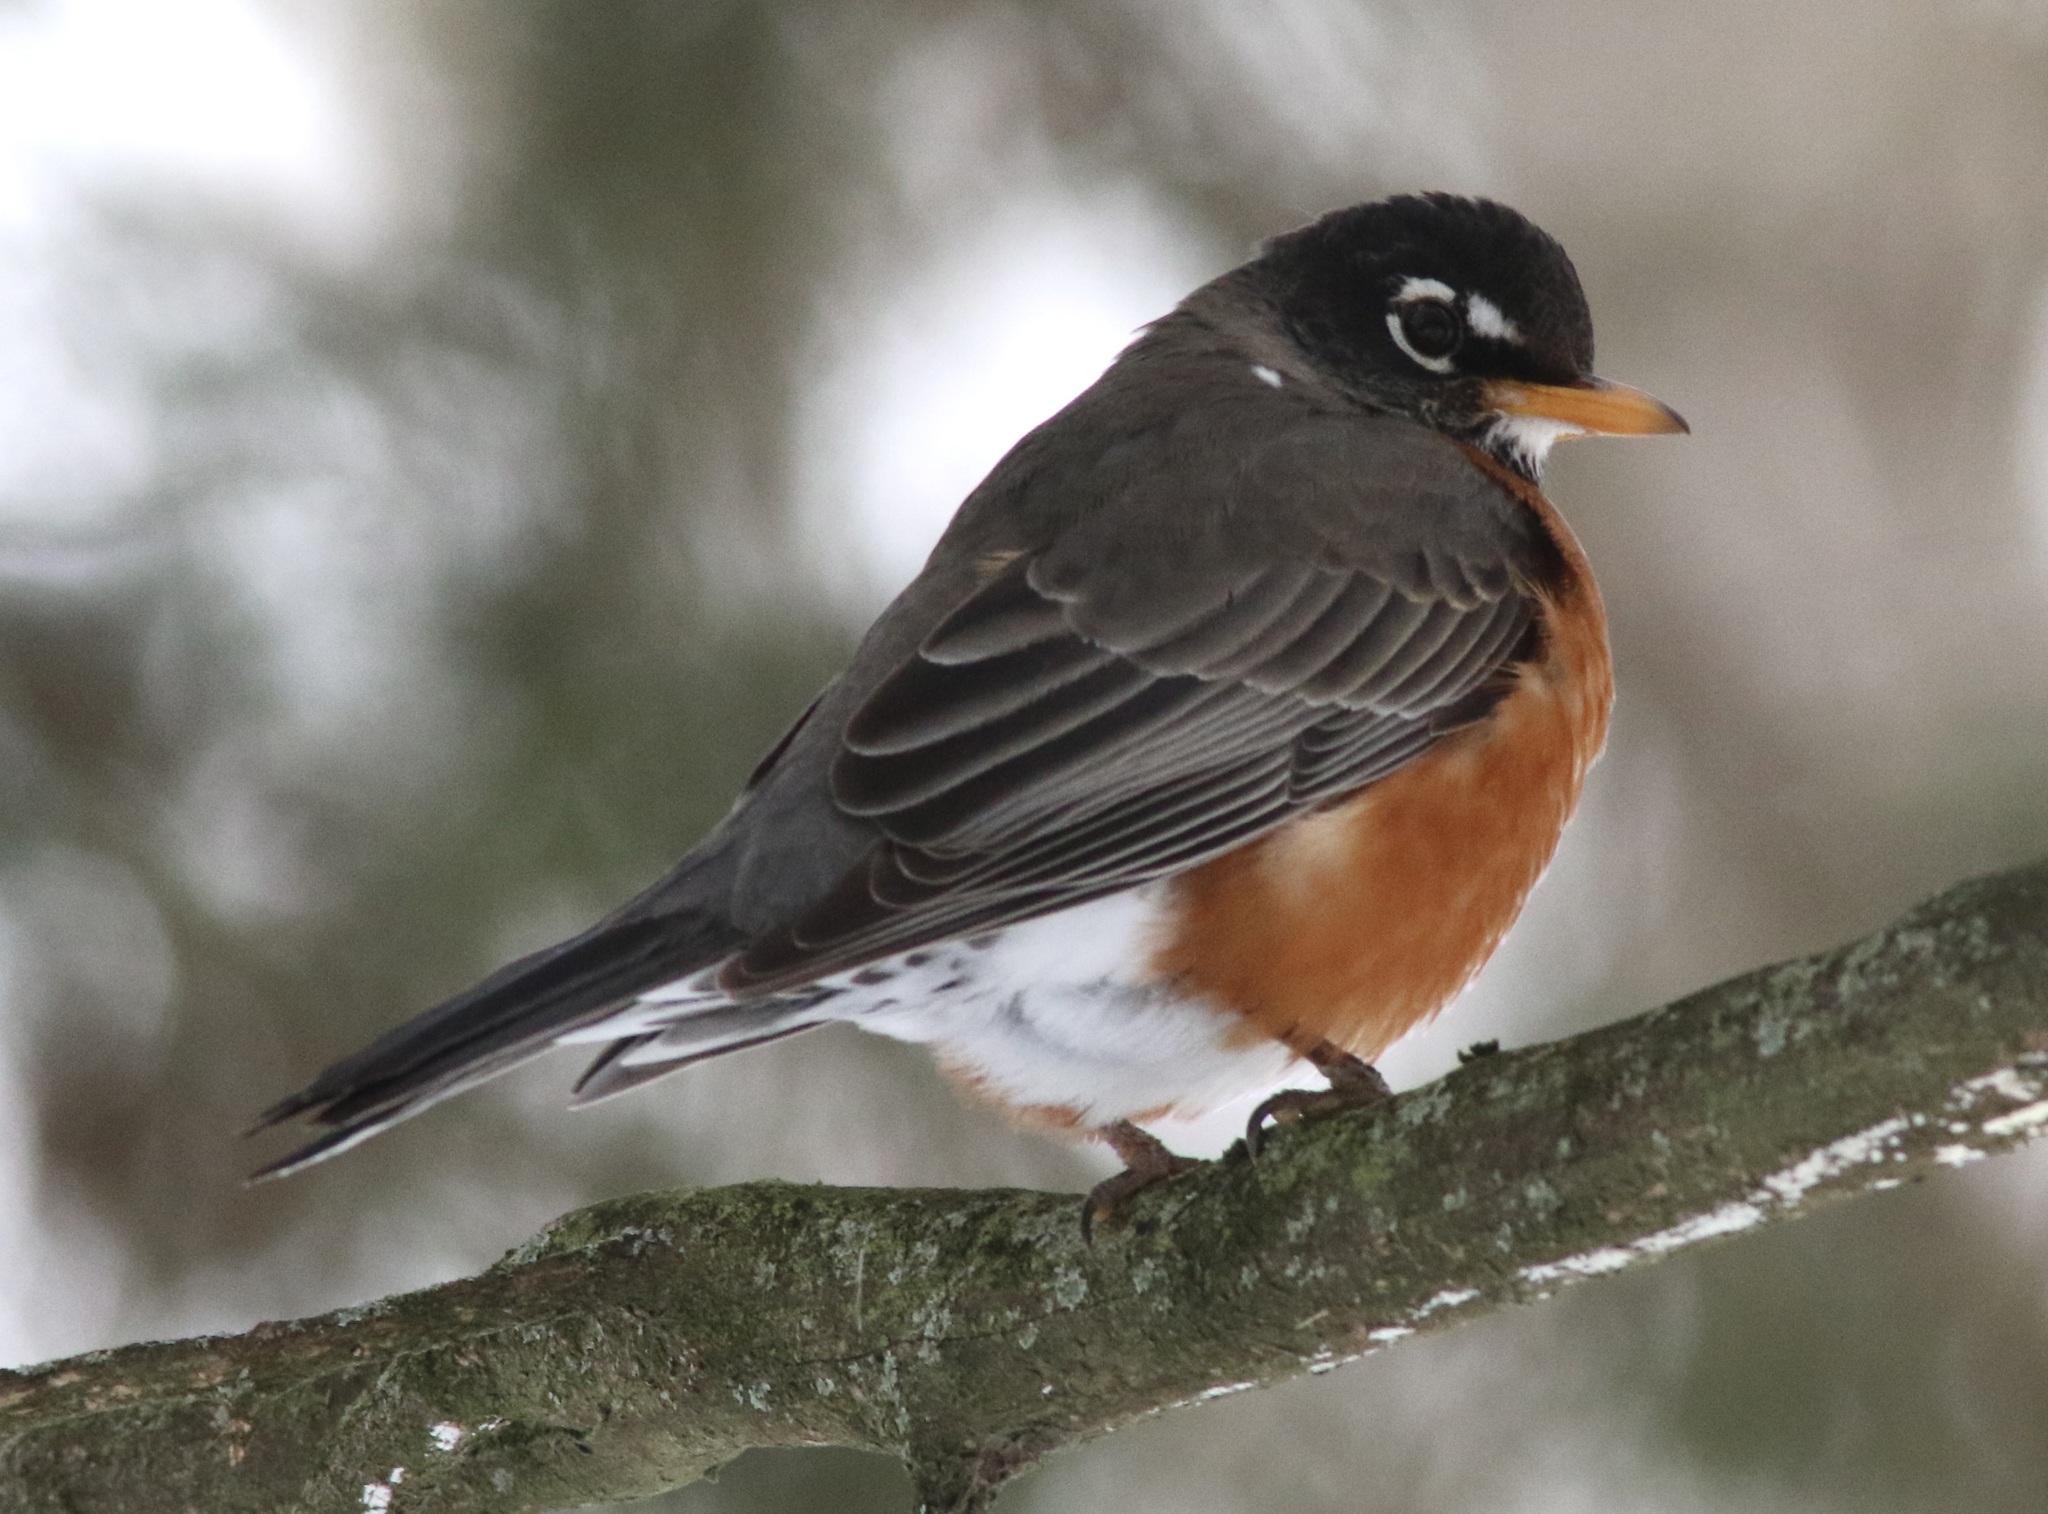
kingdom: Animalia
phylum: Chordata
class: Aves
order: Passeriformes
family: Turdidae
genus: Turdus
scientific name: Turdus migratorius
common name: American robin
